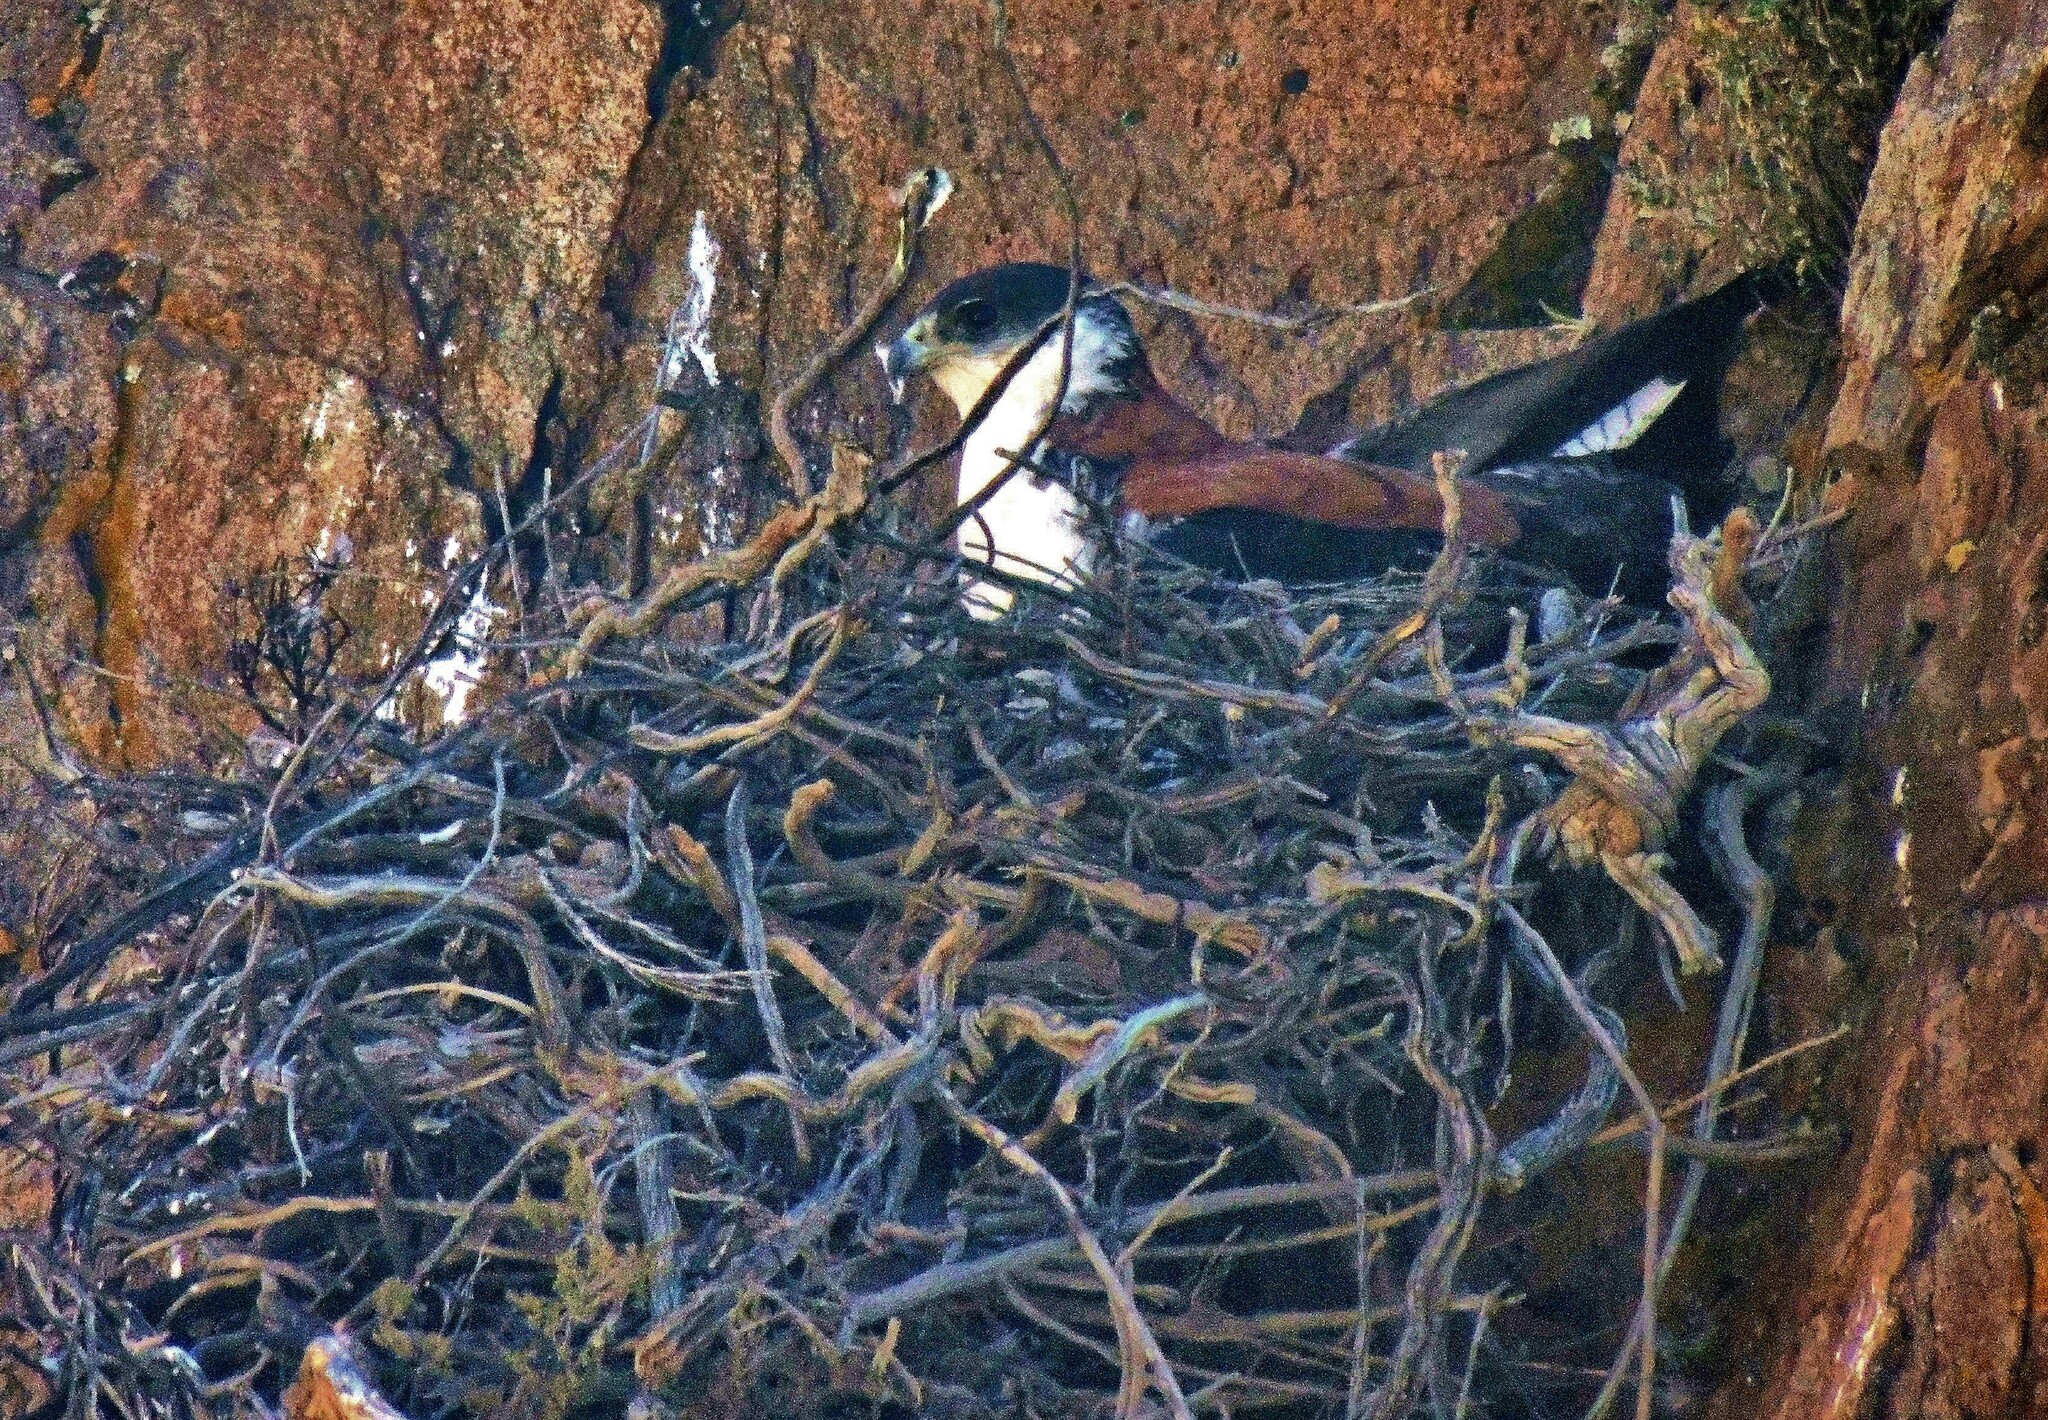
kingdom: Animalia
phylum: Chordata
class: Aves
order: Accipitriformes
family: Accipitridae
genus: Buteo
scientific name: Buteo polyosoma
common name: Variable hawk
